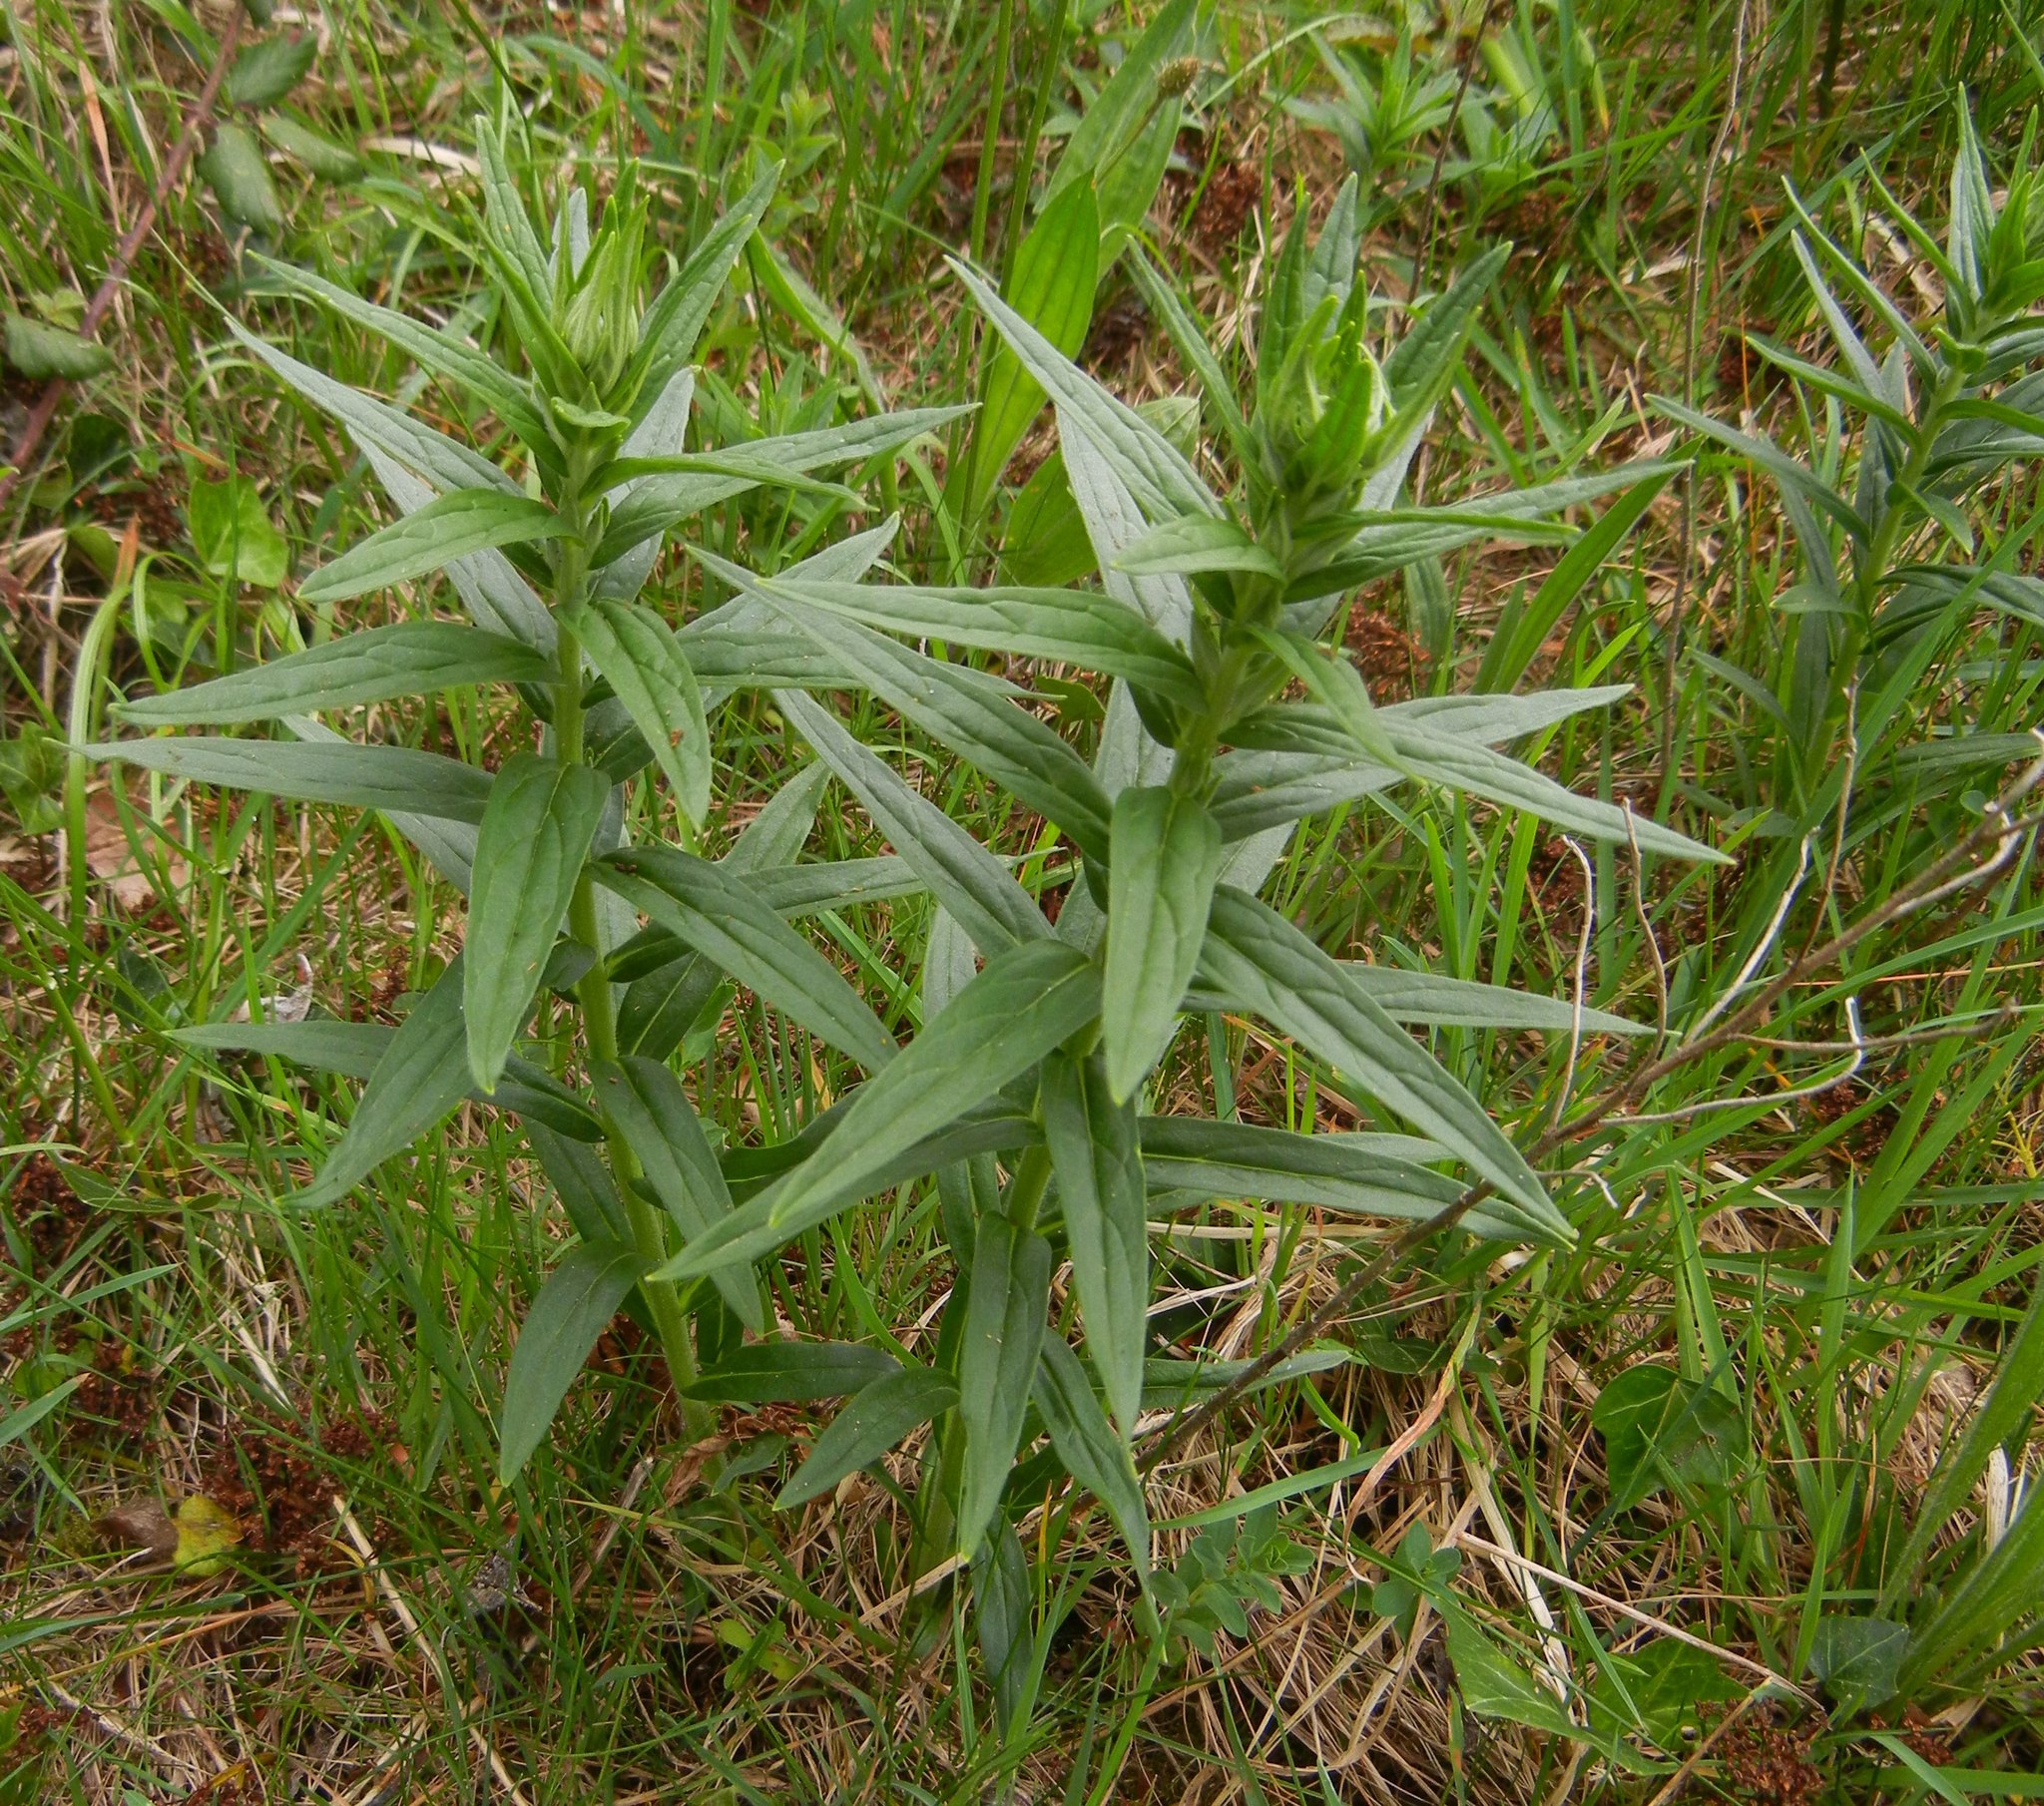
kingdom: Plantae
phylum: Tracheophyta
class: Magnoliopsida
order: Boraginales
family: Boraginaceae
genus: Lithospermum
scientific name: Lithospermum officinale
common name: Common gromwell
